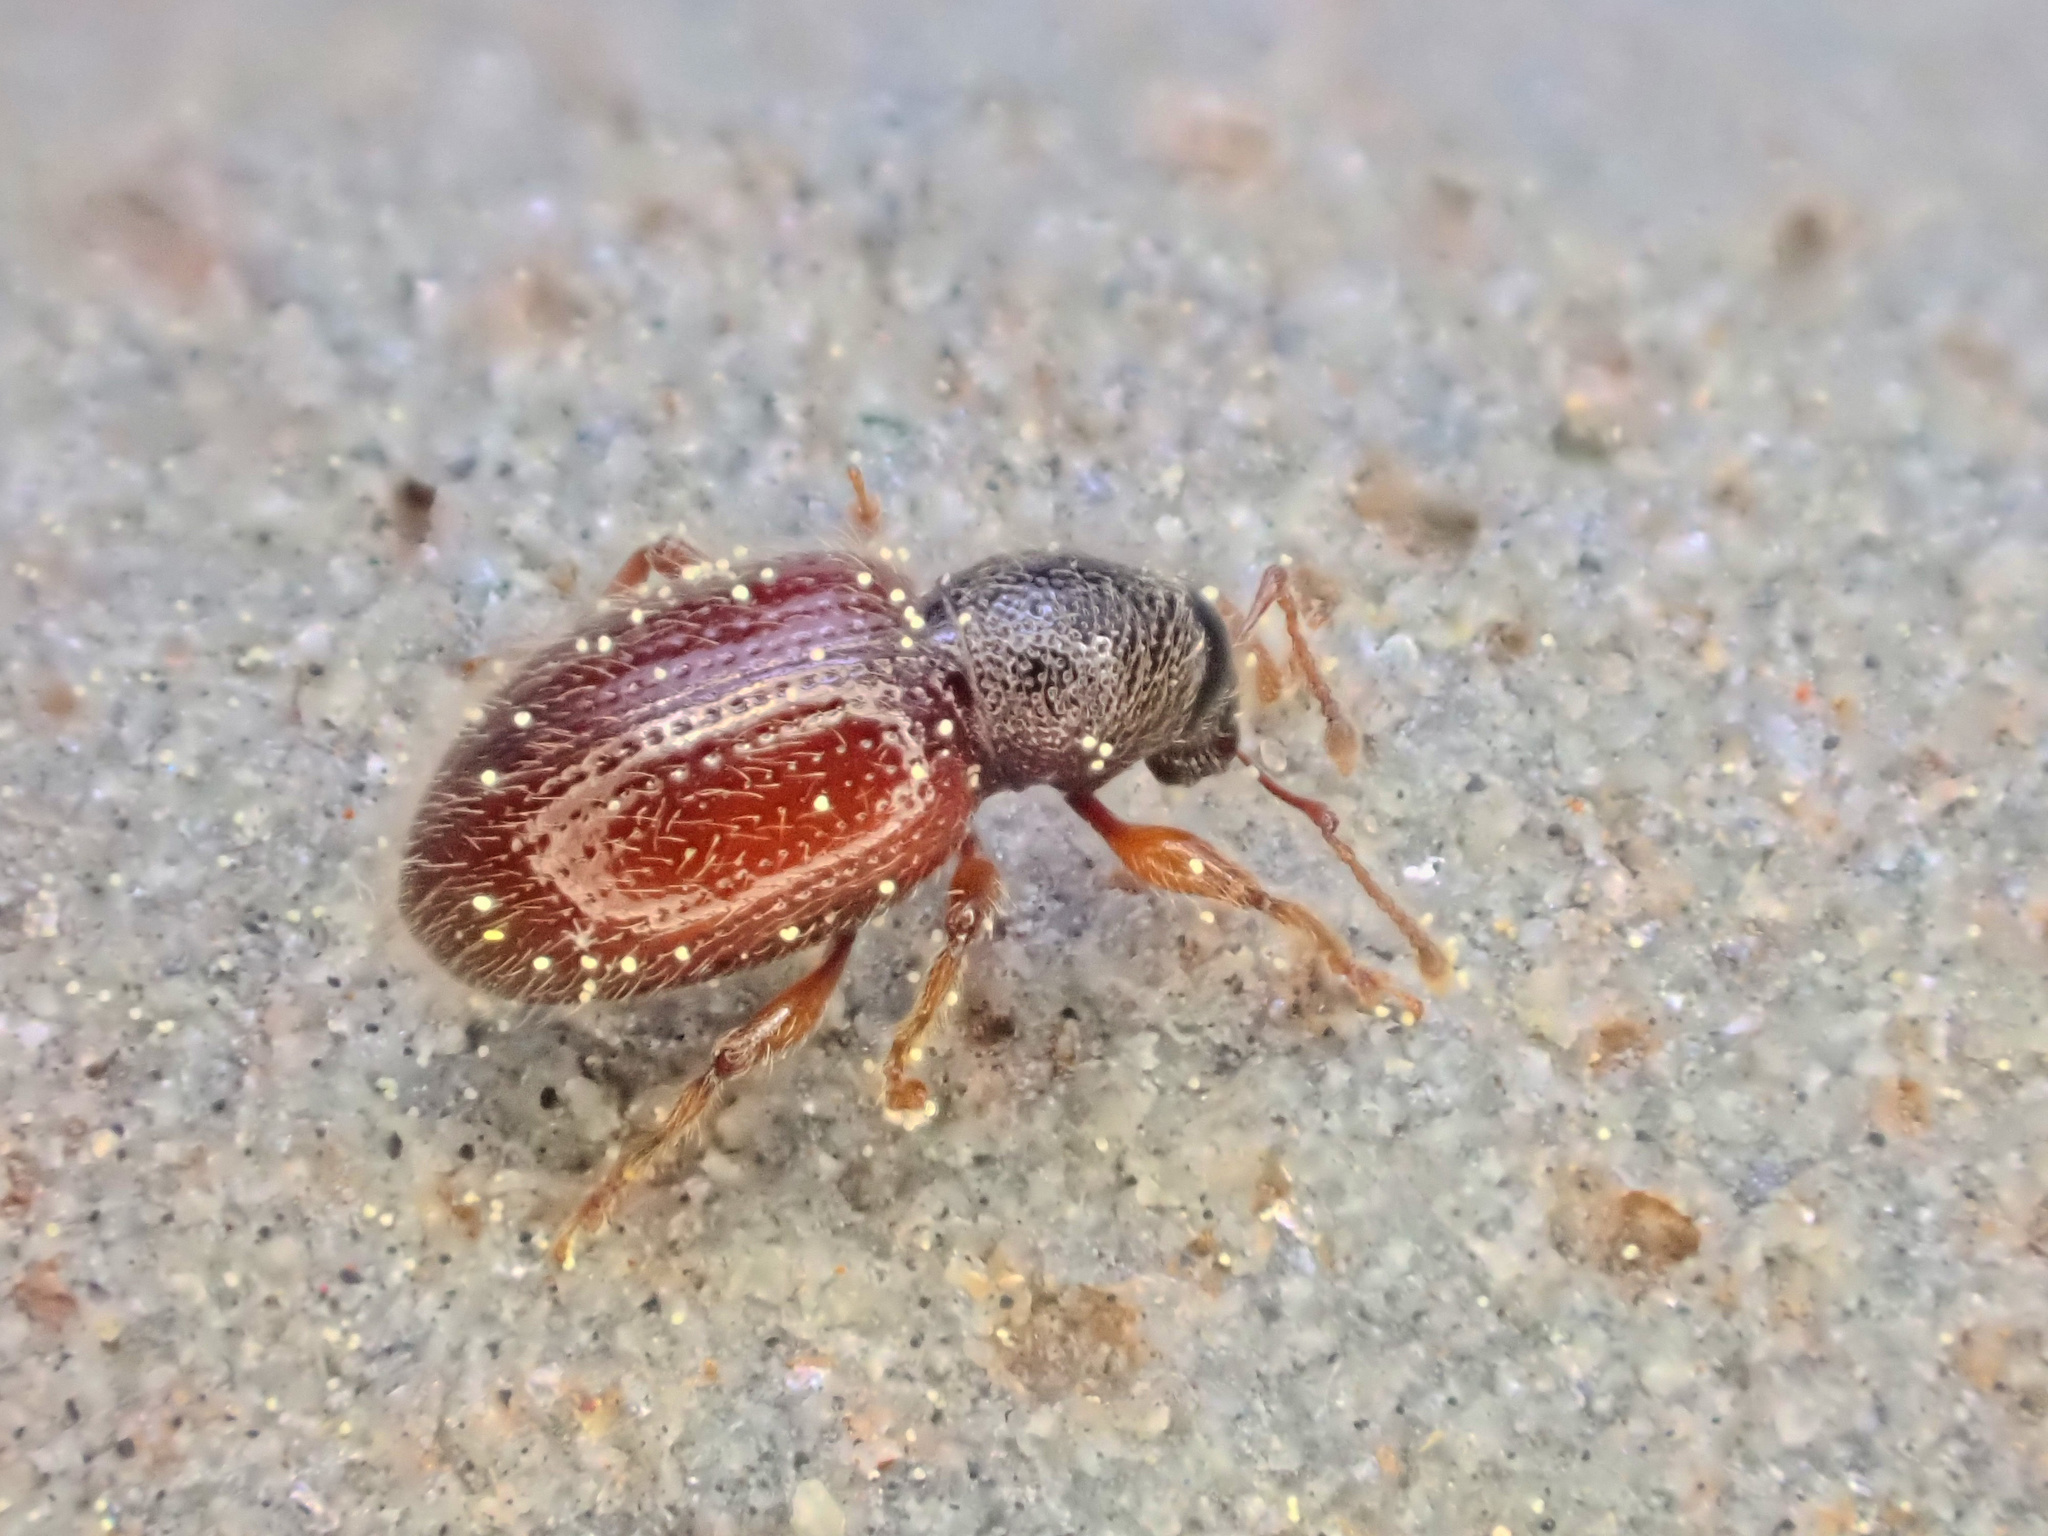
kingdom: Animalia
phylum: Arthropoda
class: Insecta
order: Coleoptera
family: Curculionidae
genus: Exomias
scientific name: Exomias pellucidus
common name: Hairy spider weevil
